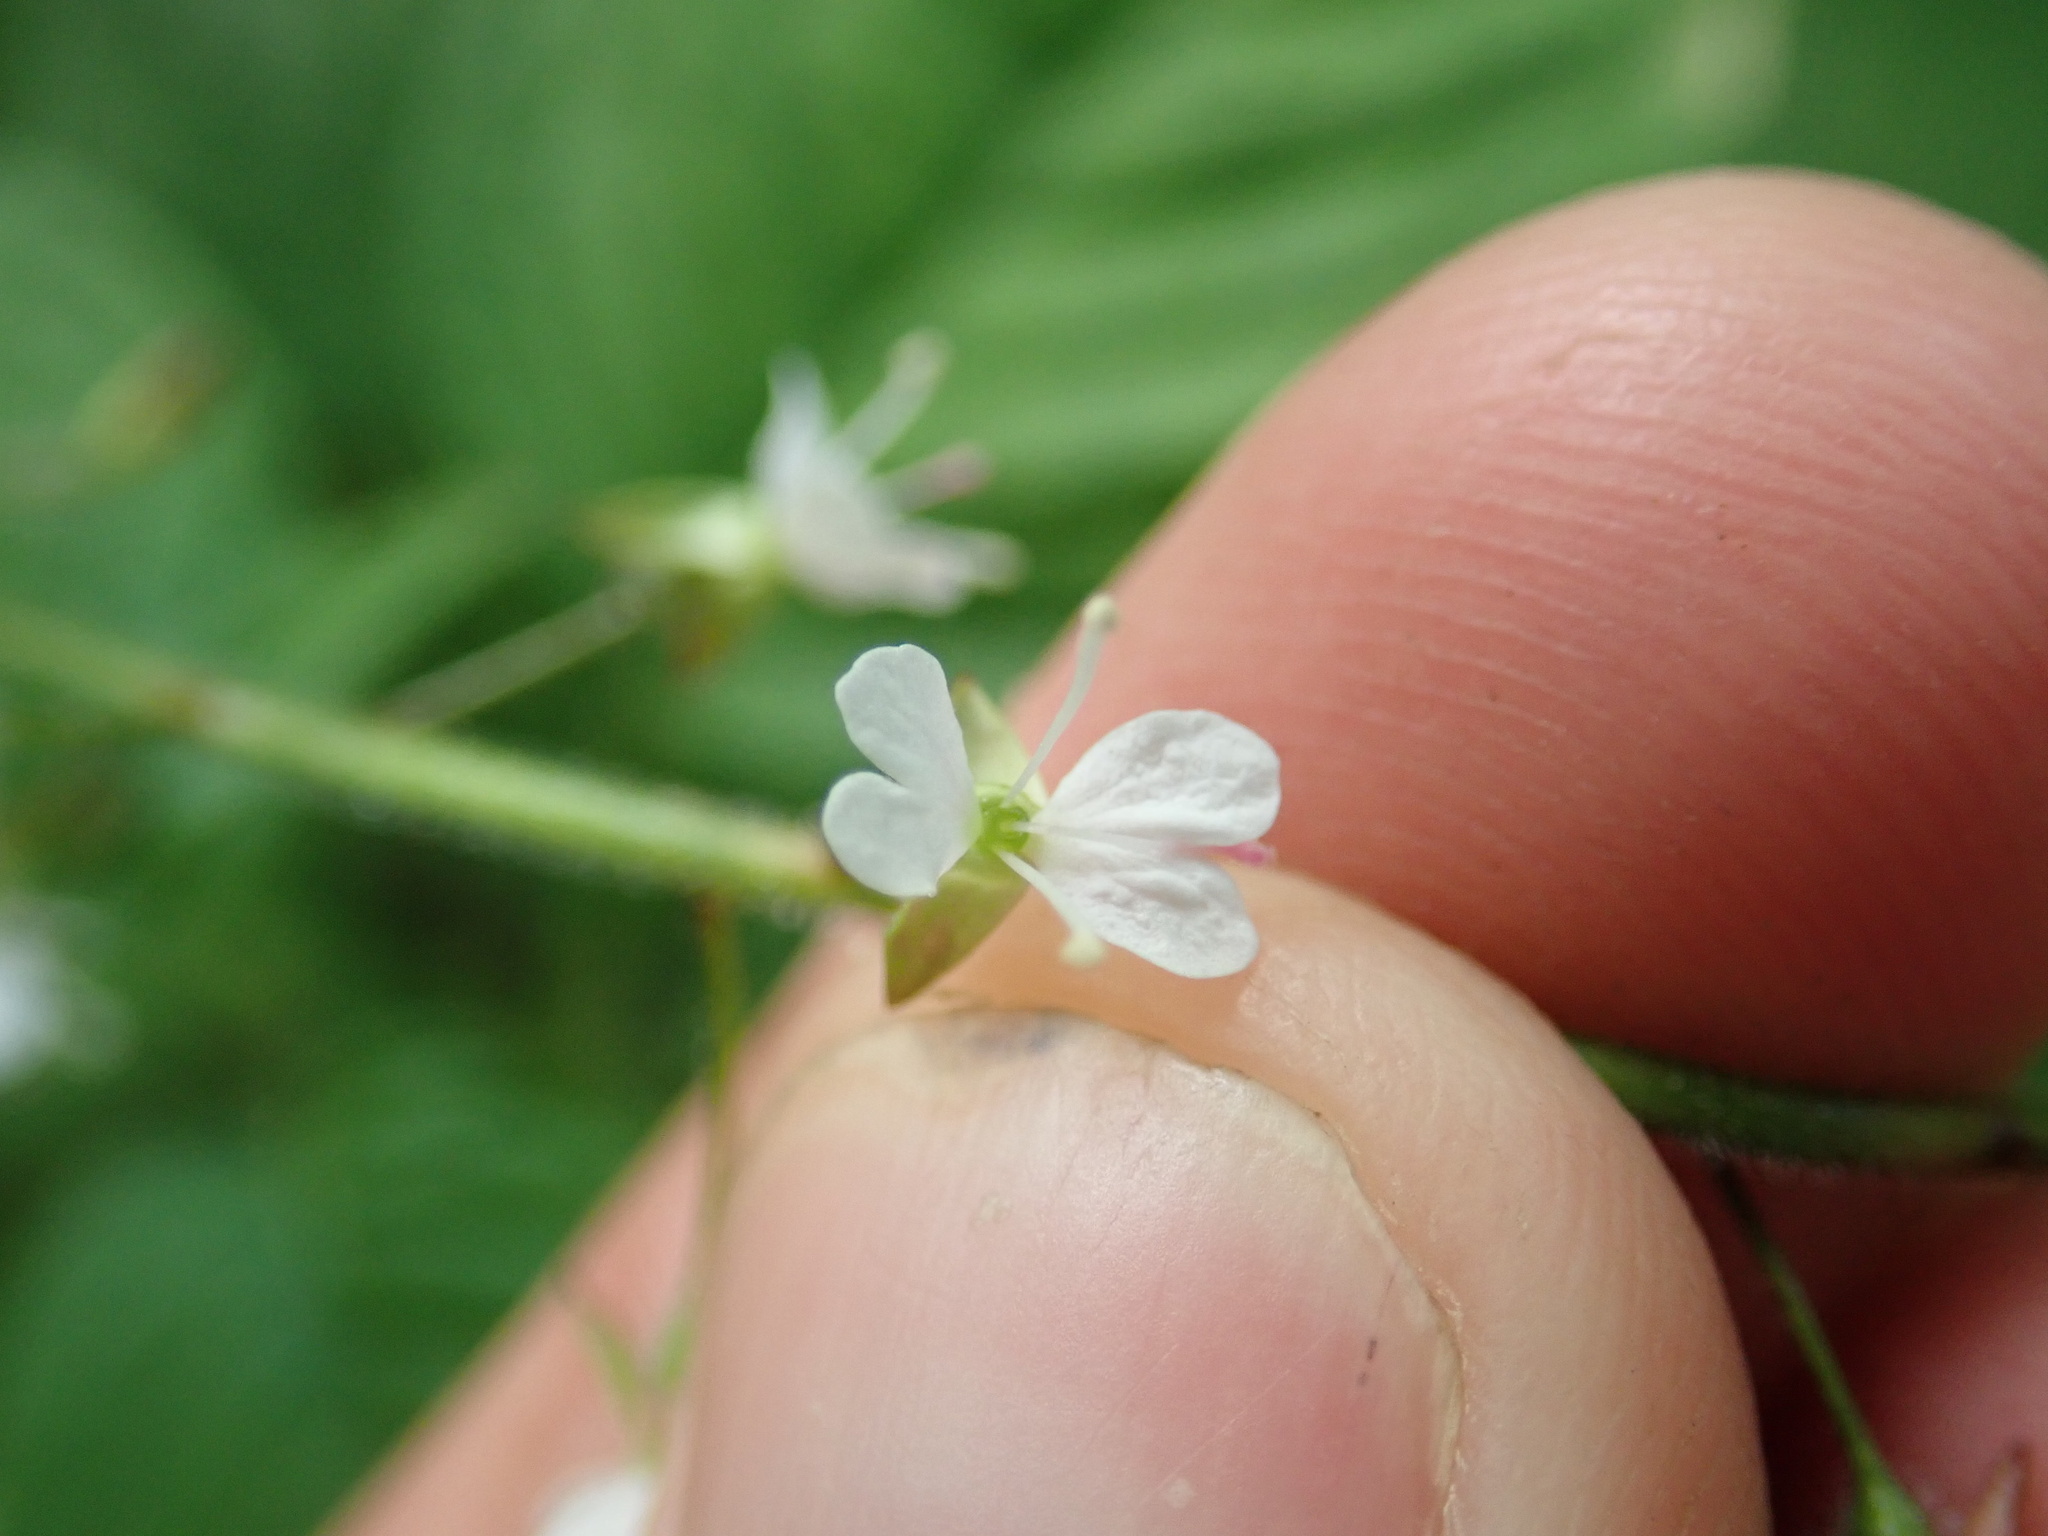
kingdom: Plantae
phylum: Tracheophyta
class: Magnoliopsida
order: Myrtales
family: Onagraceae
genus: Circaea
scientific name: Circaea lutetiana
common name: Enchanter's-nightshade
